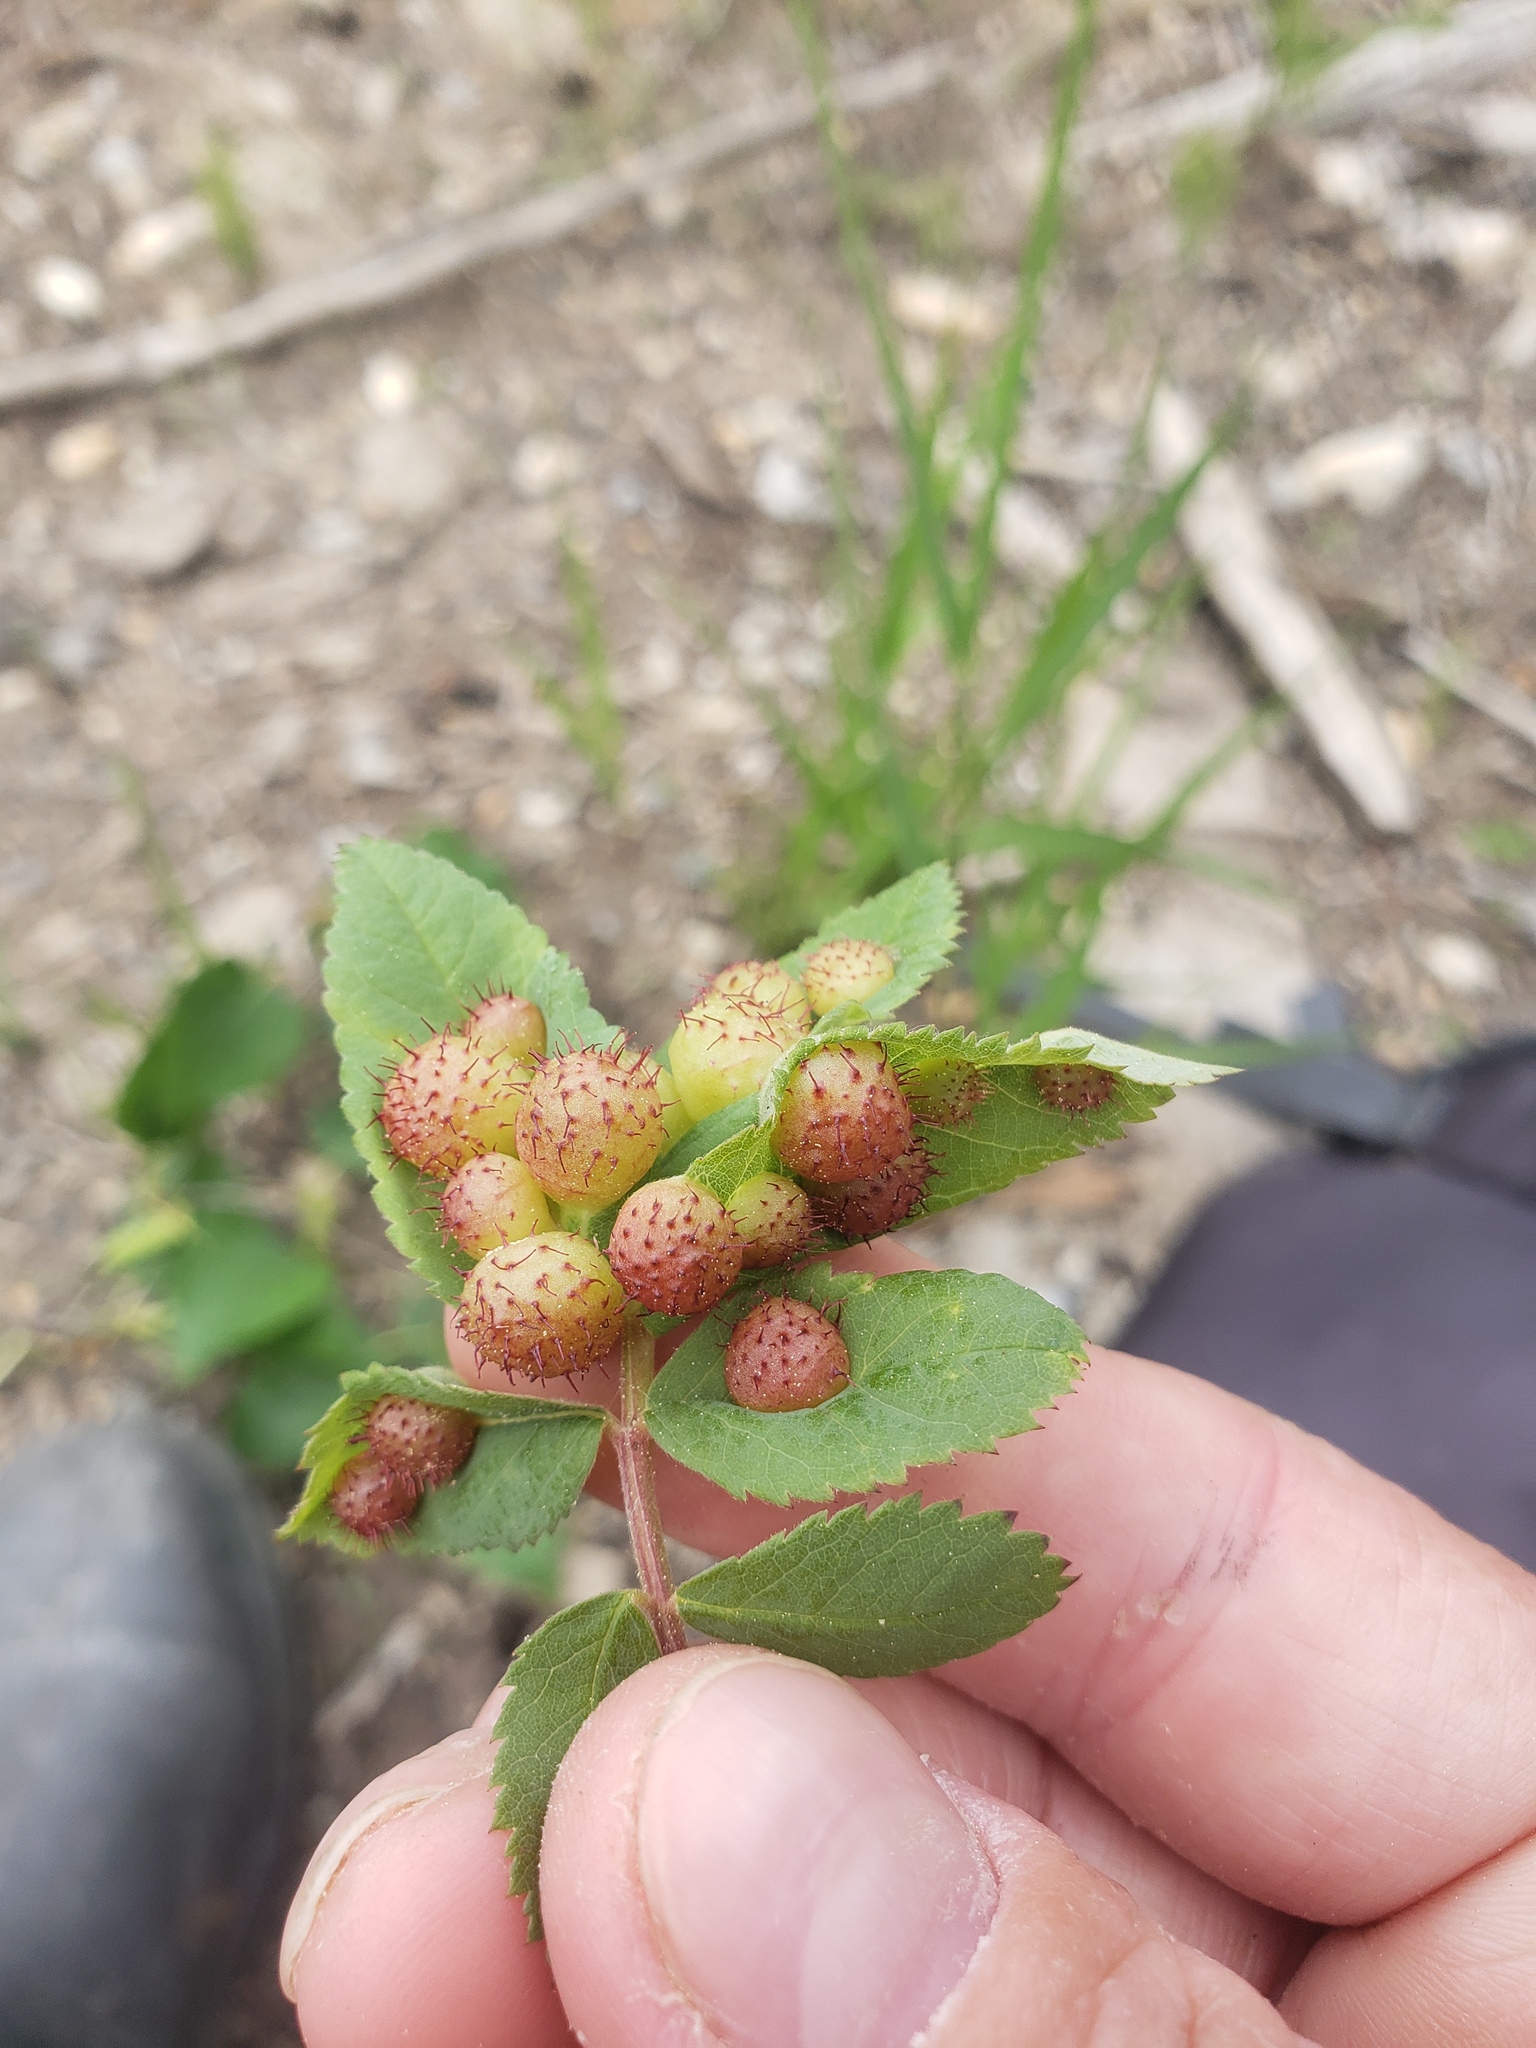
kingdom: Animalia
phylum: Arthropoda
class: Insecta
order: Hymenoptera
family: Cynipidae
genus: Diplolepis
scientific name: Diplolepis polita
